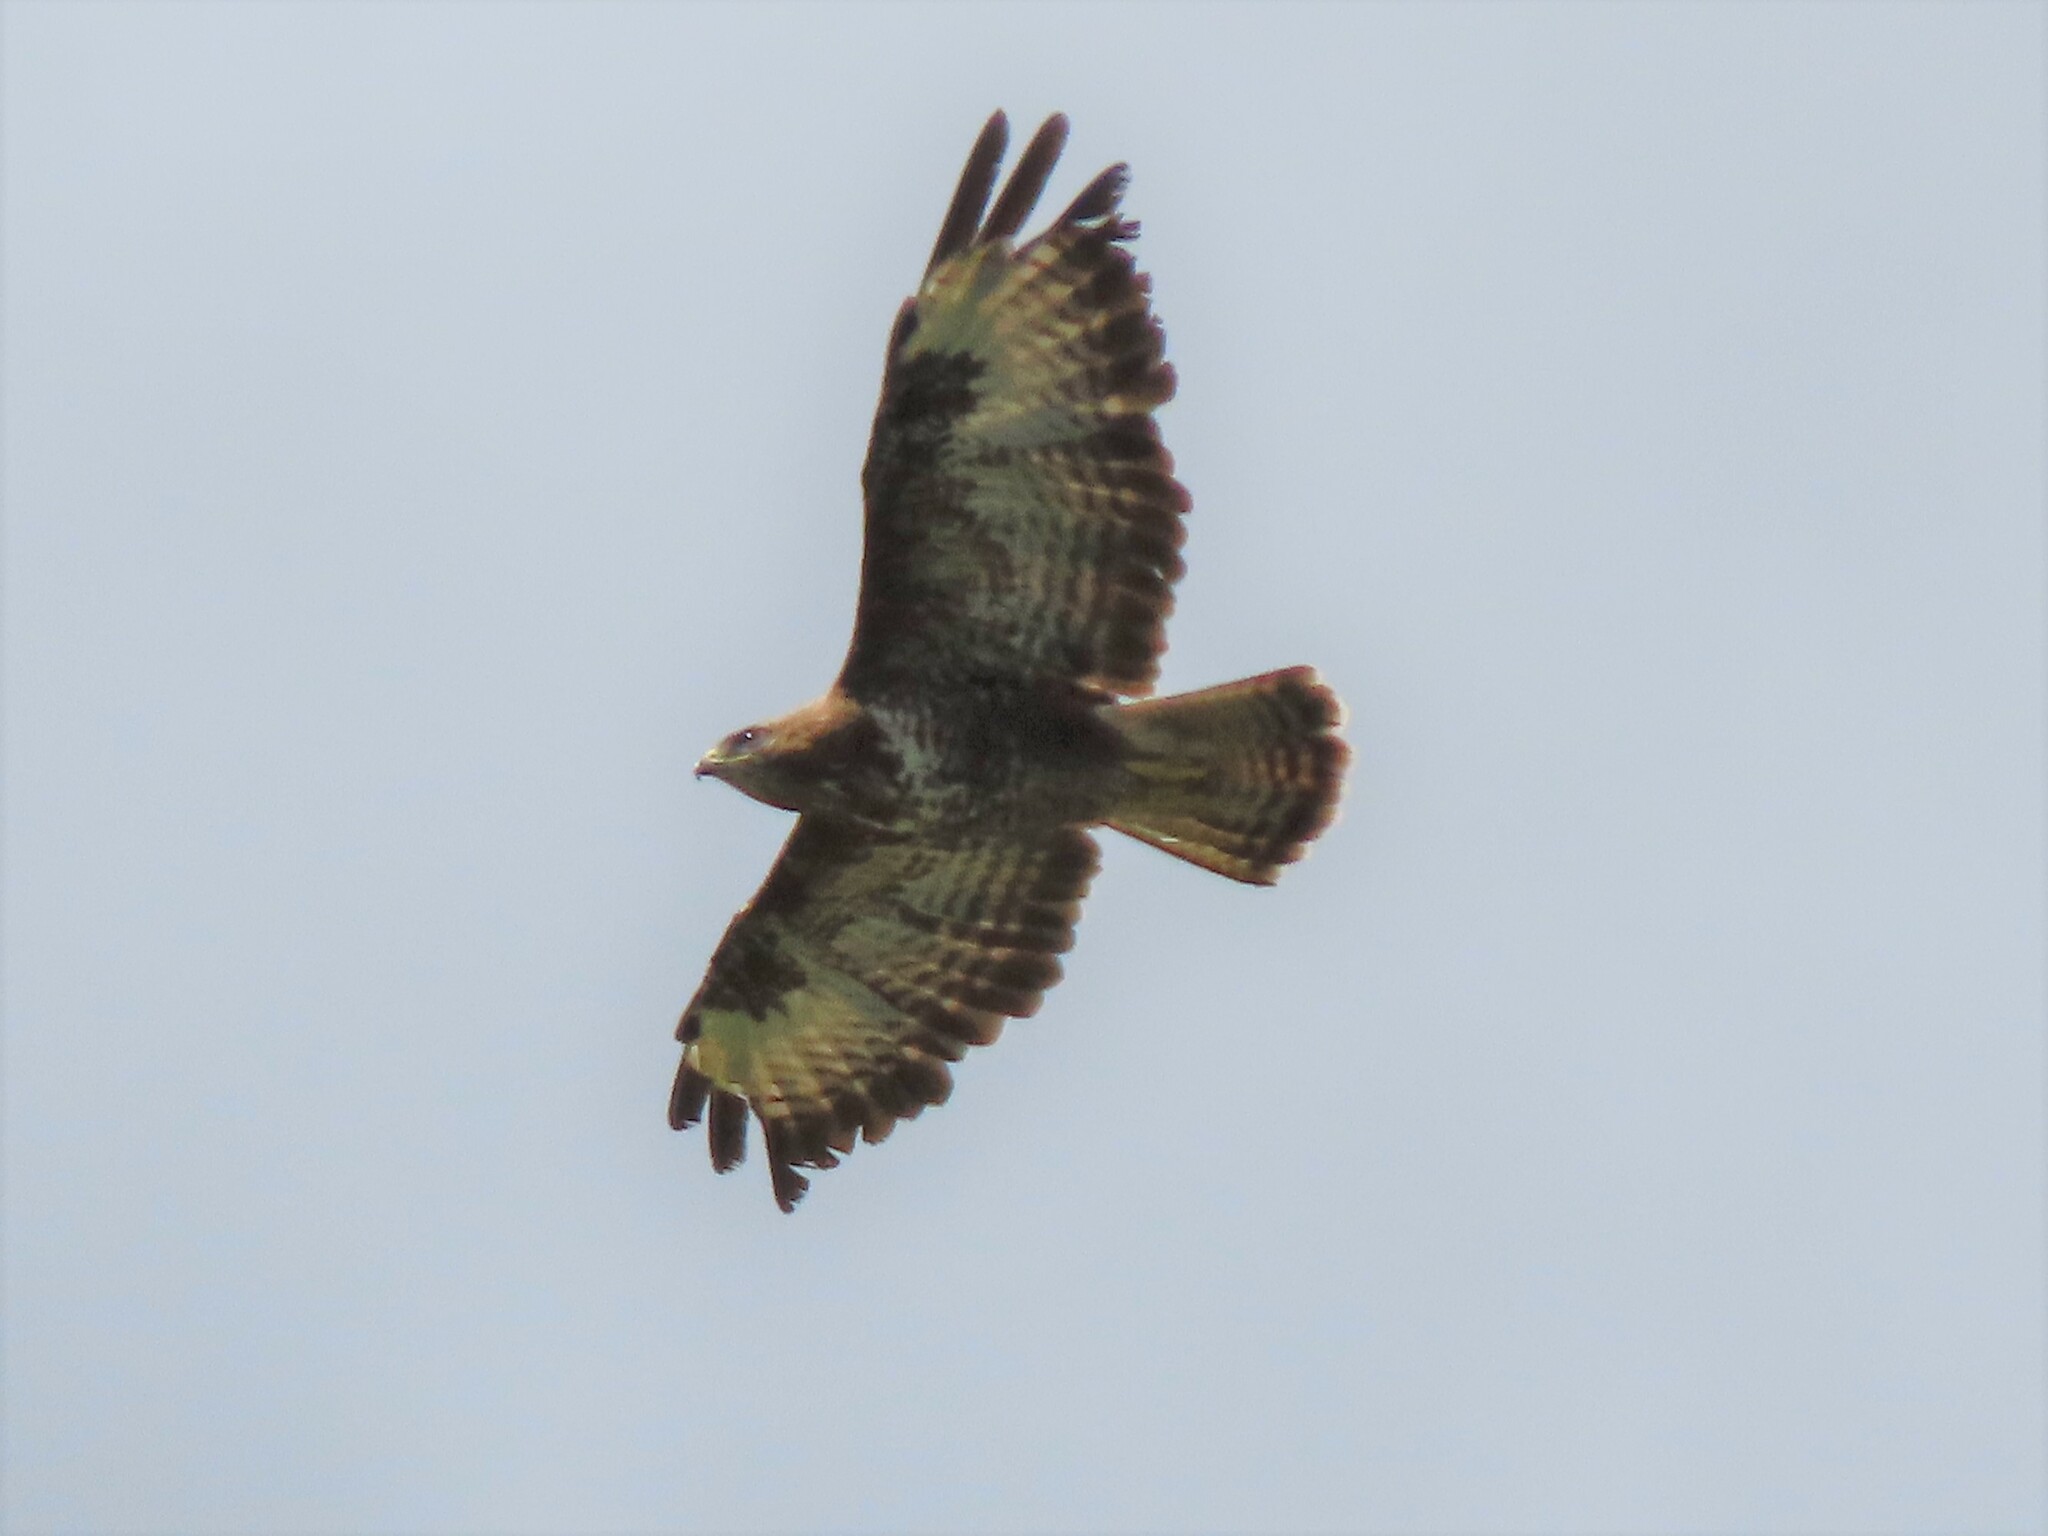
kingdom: Animalia
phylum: Chordata
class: Aves
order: Accipitriformes
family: Accipitridae
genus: Buteo
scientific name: Buteo buteo
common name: Common buzzard
